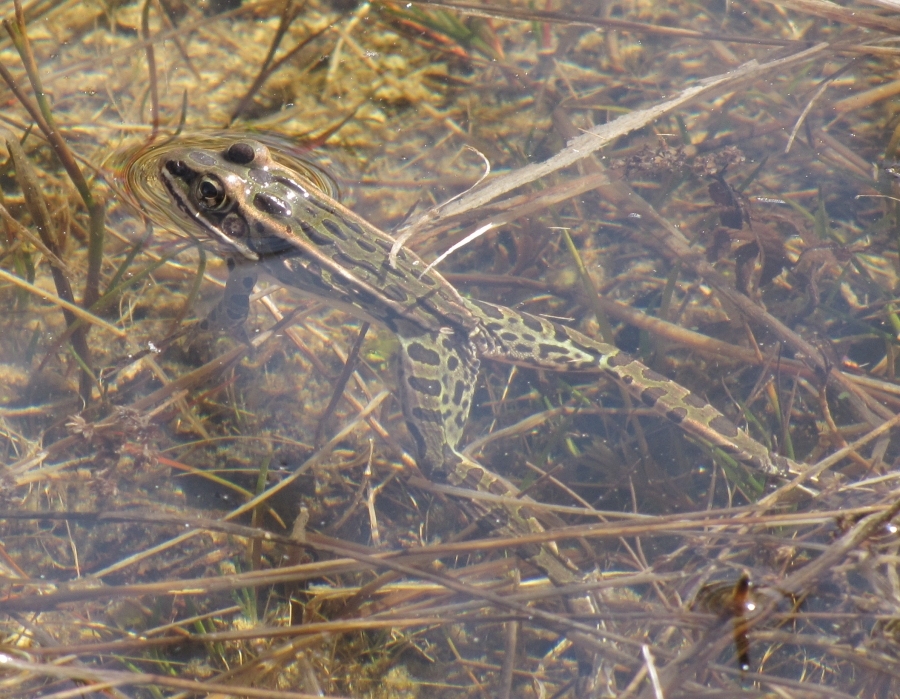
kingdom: Animalia
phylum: Chordata
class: Amphibia
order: Anura
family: Ranidae
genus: Lithobates
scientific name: Lithobates pipiens
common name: Northern leopard frog
